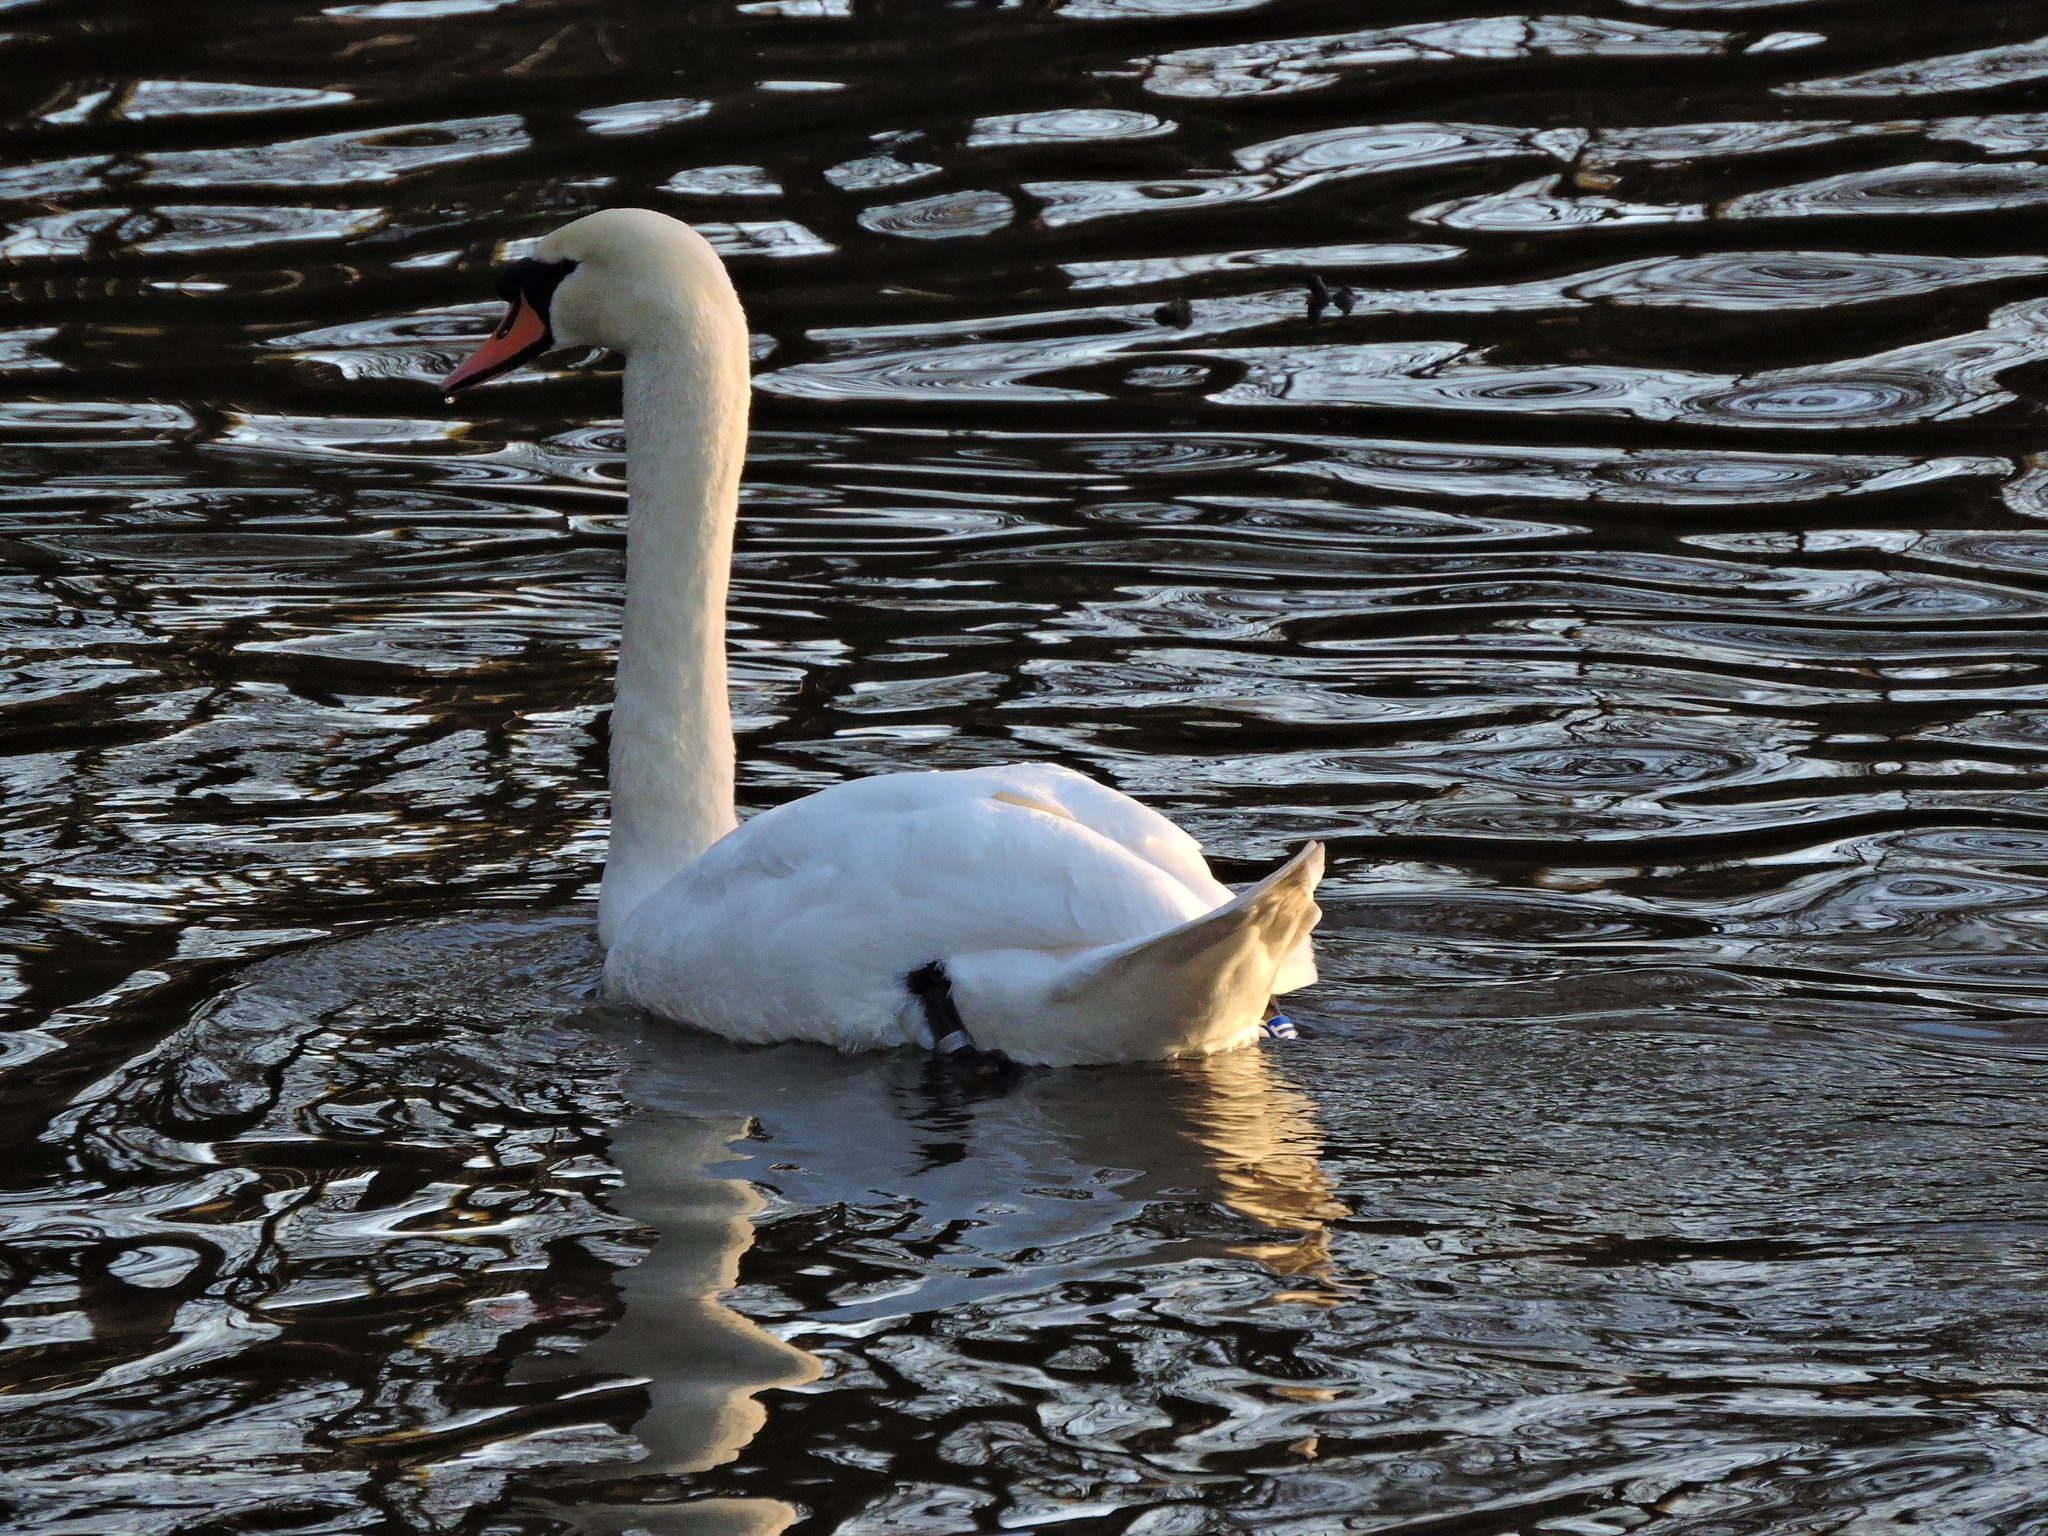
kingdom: Animalia
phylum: Chordata
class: Aves
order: Anseriformes
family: Anatidae
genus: Cygnus
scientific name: Cygnus olor
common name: Mute swan
